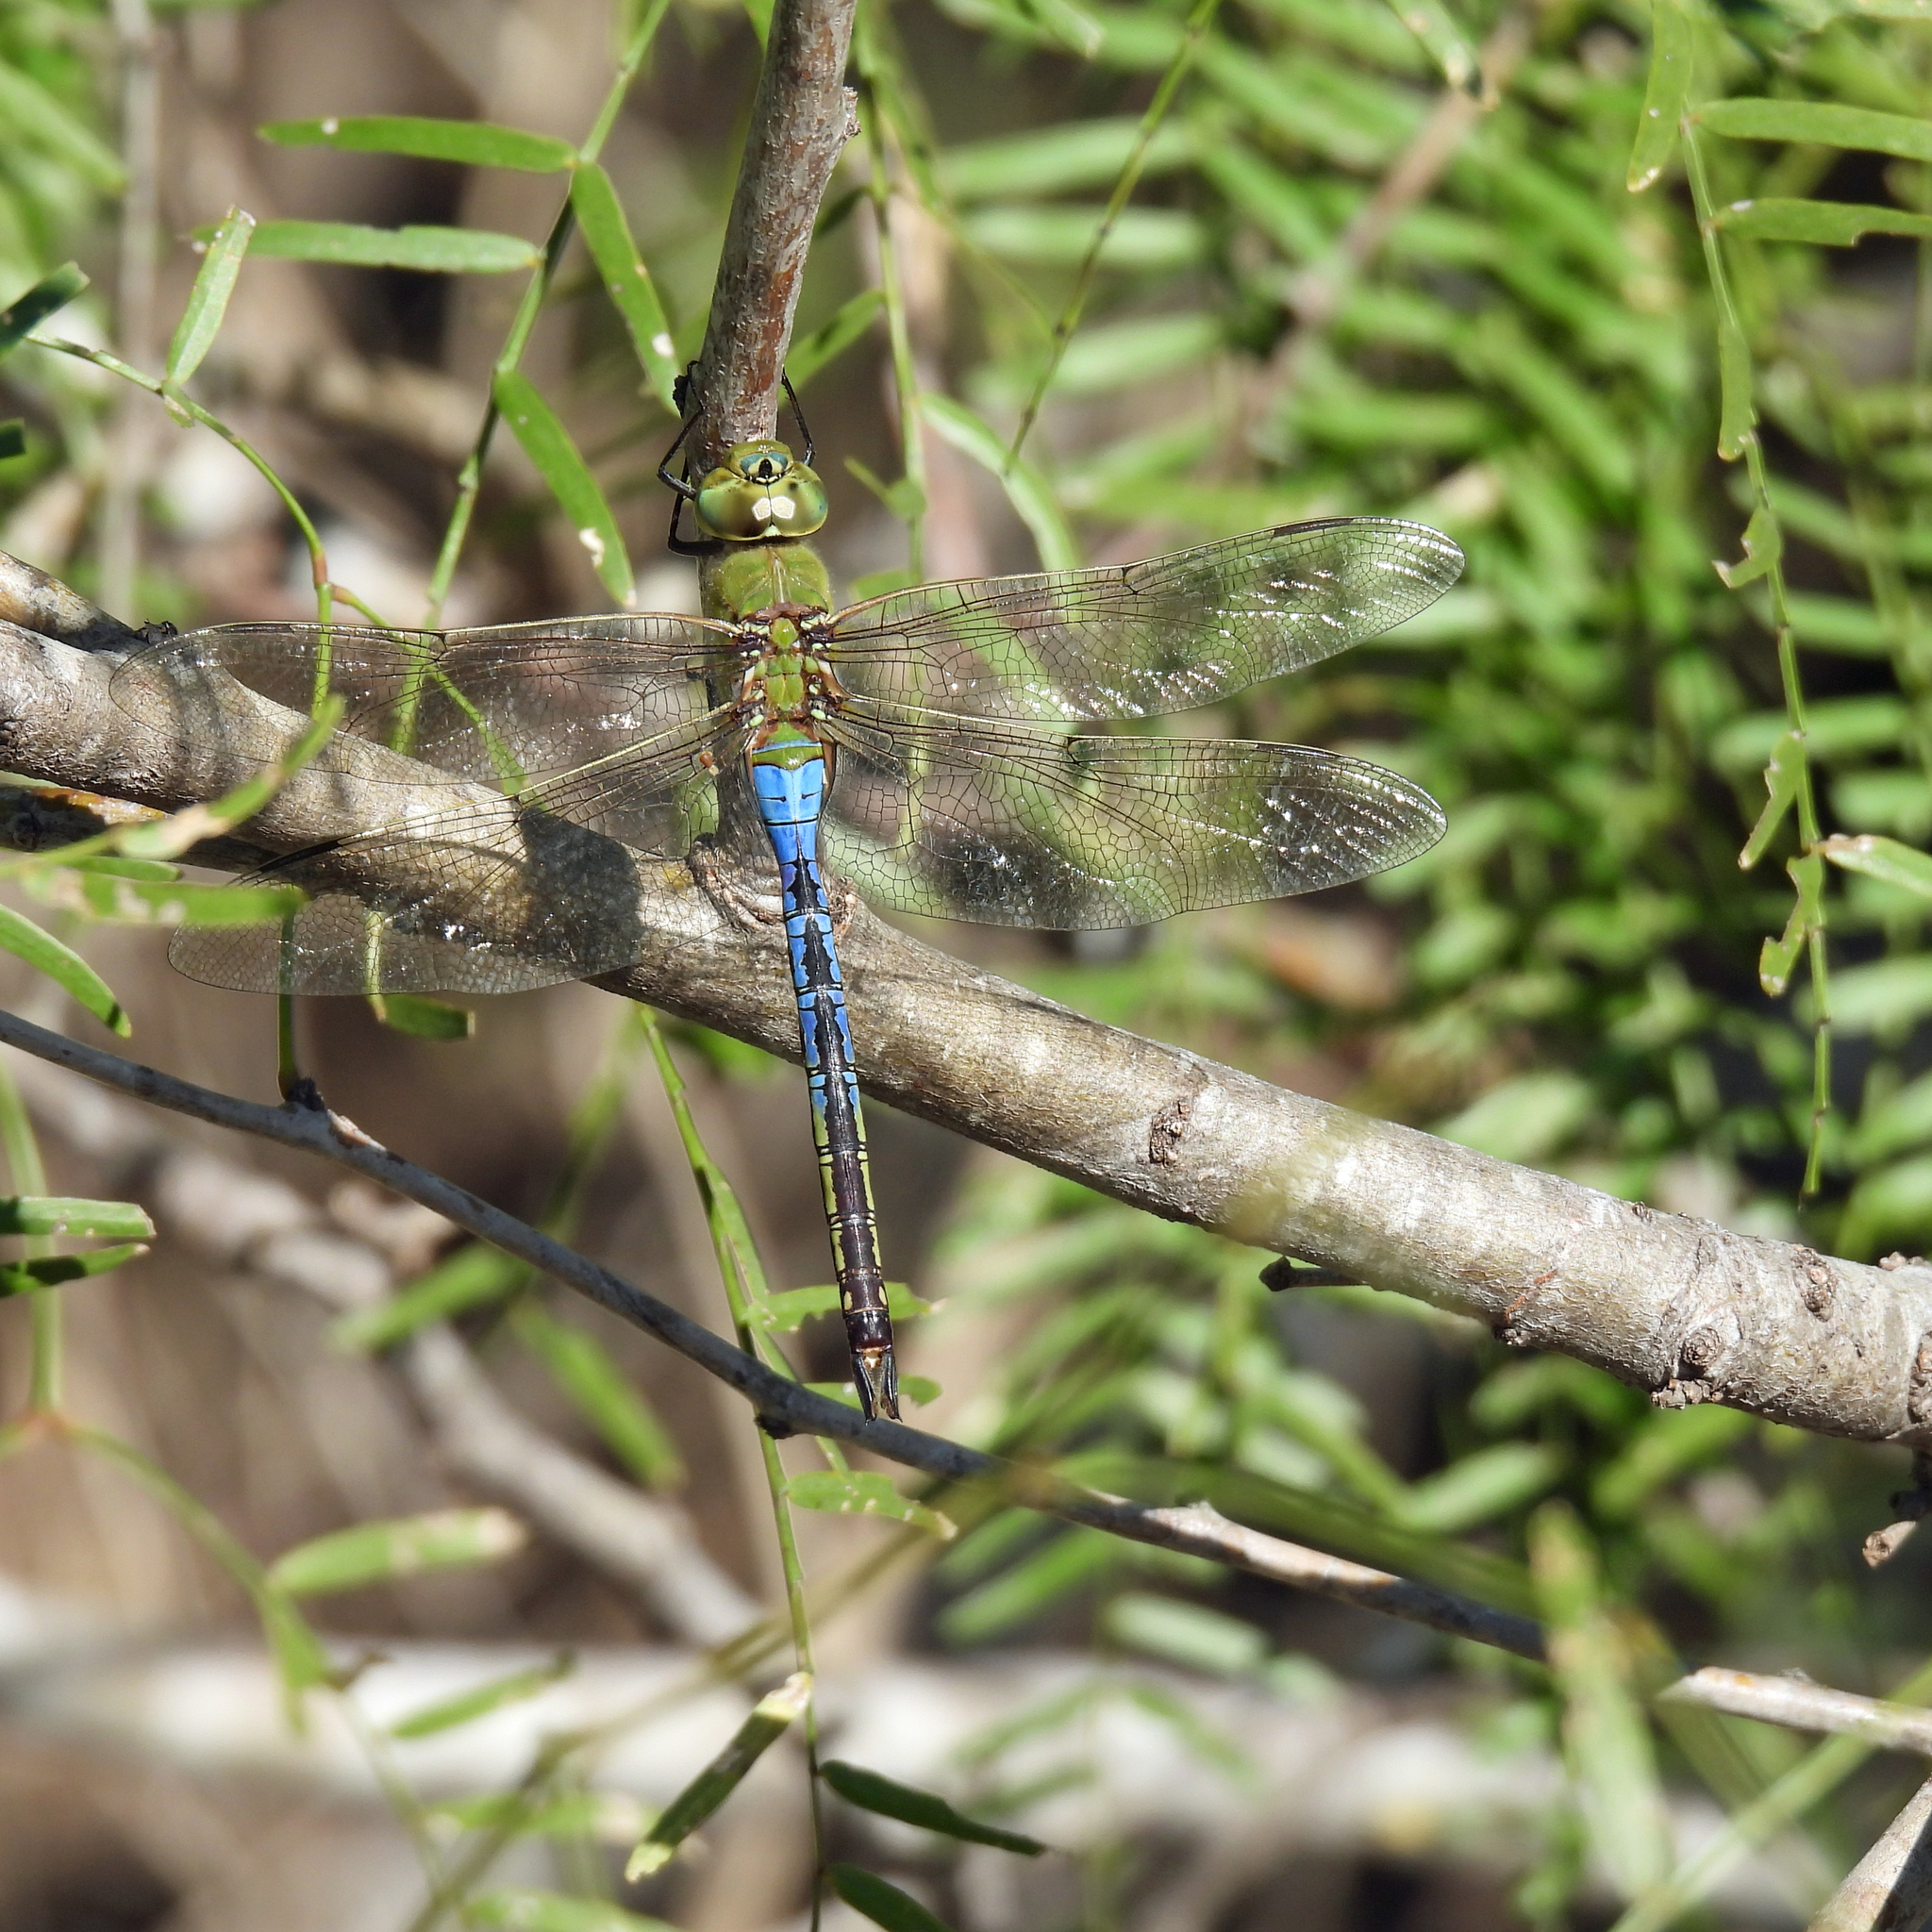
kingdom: Animalia
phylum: Arthropoda
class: Insecta
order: Odonata
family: Aeshnidae
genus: Anax
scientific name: Anax junius
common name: Common green darner
